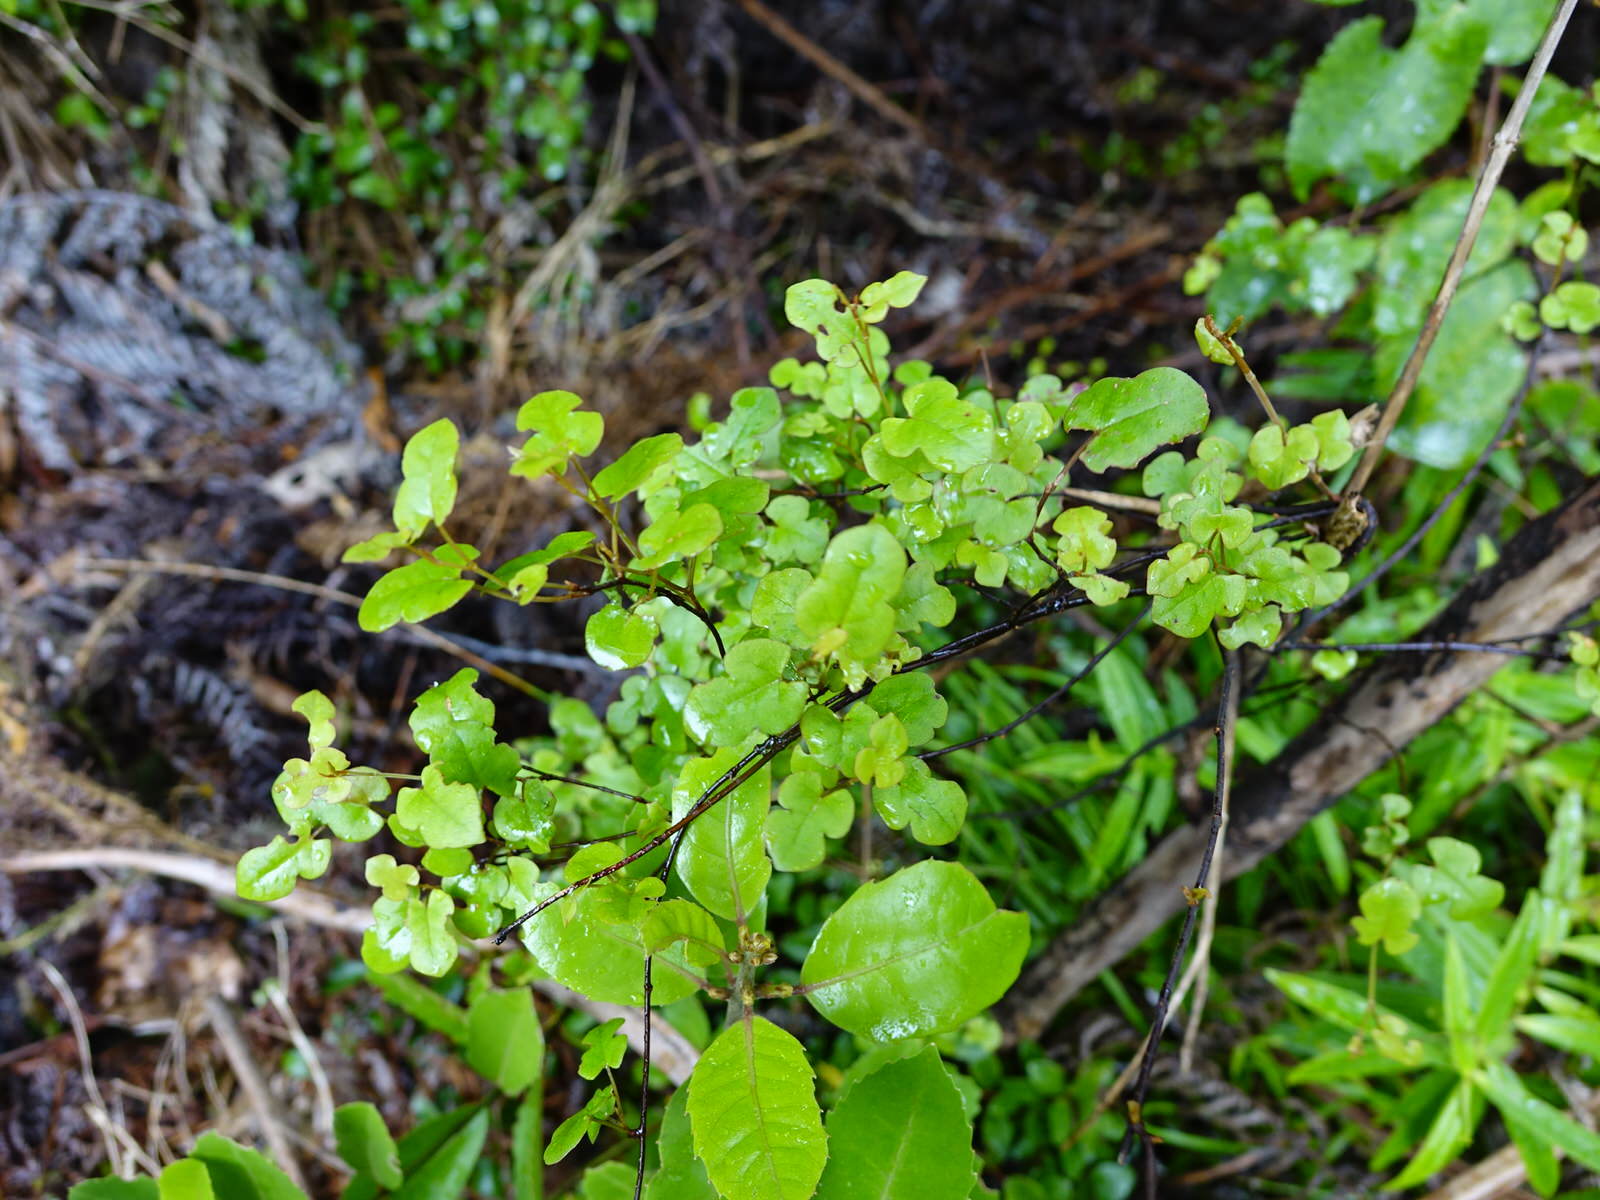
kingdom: Plantae
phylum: Tracheophyta
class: Magnoliopsida
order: Caryophyllales
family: Polygonaceae
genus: Muehlenbeckia
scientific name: Muehlenbeckia australis
